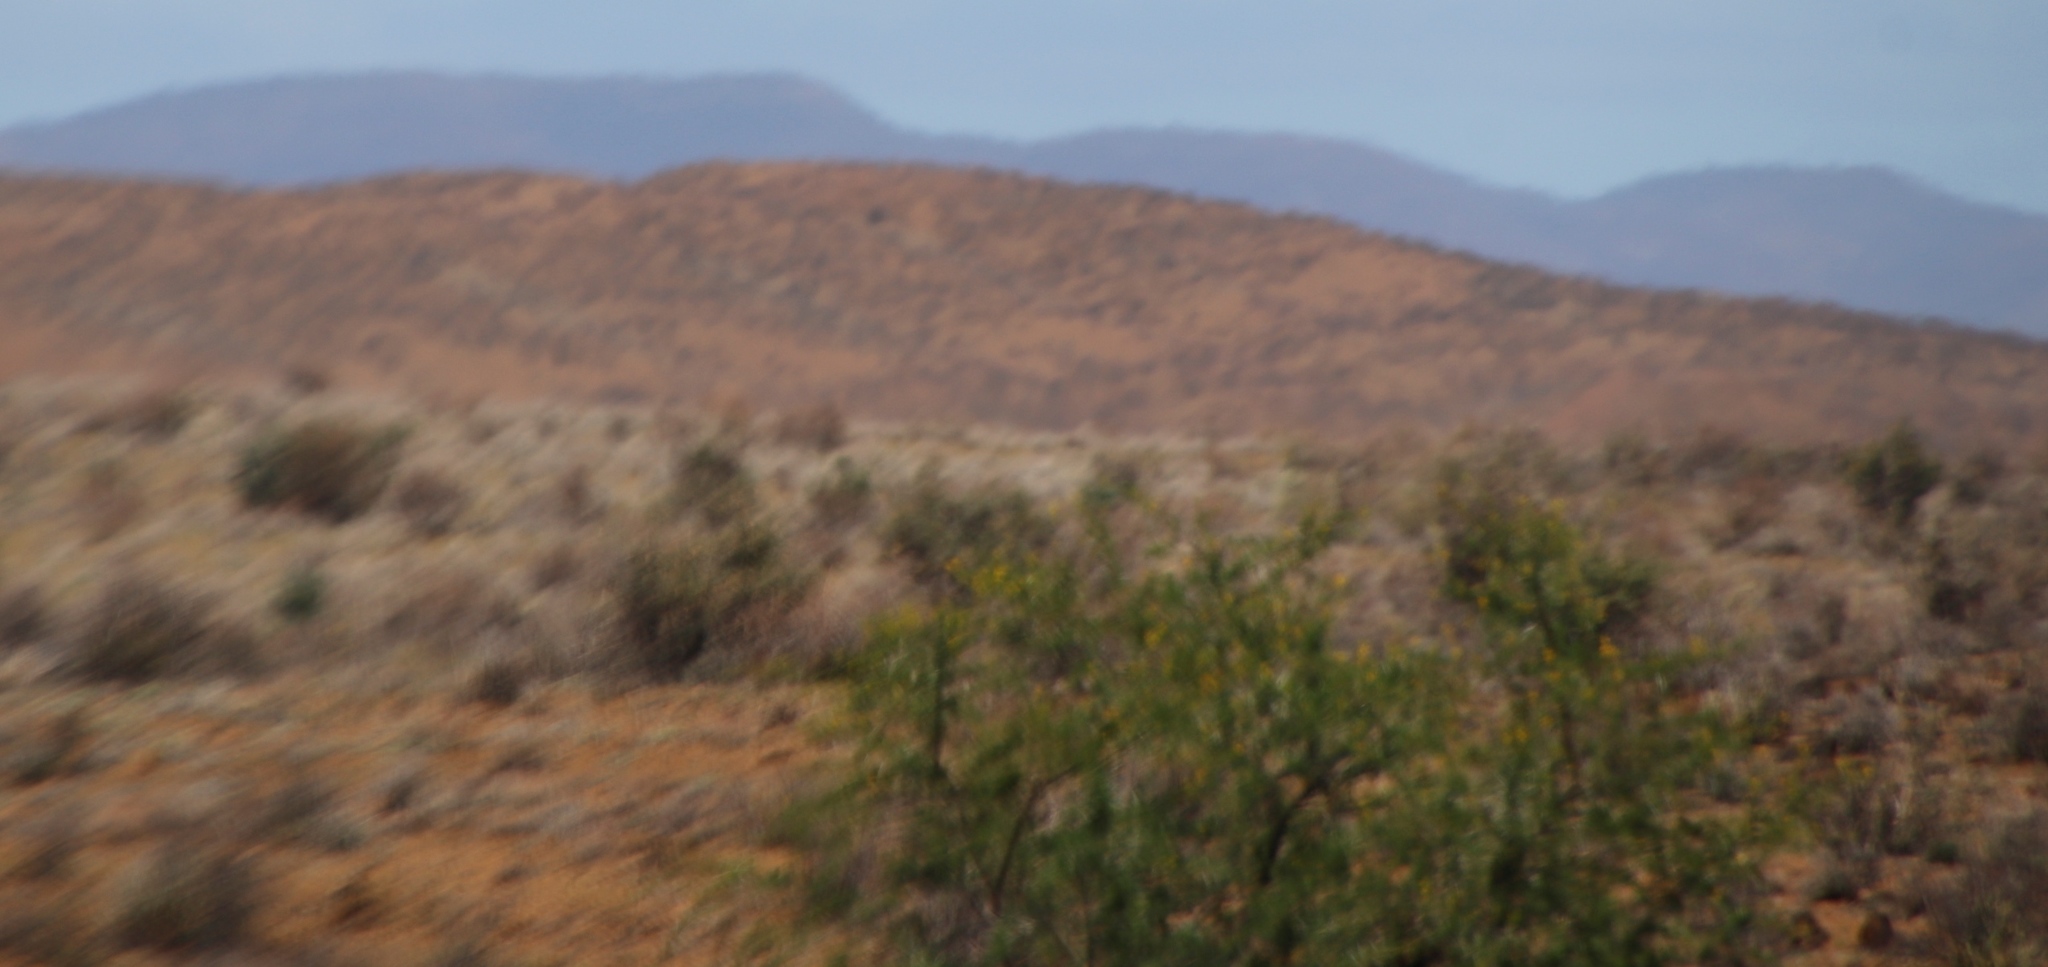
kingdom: Plantae
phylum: Tracheophyta
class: Magnoliopsida
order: Fabales
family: Fabaceae
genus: Vachellia
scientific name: Vachellia karroo
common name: Sweet thorn
